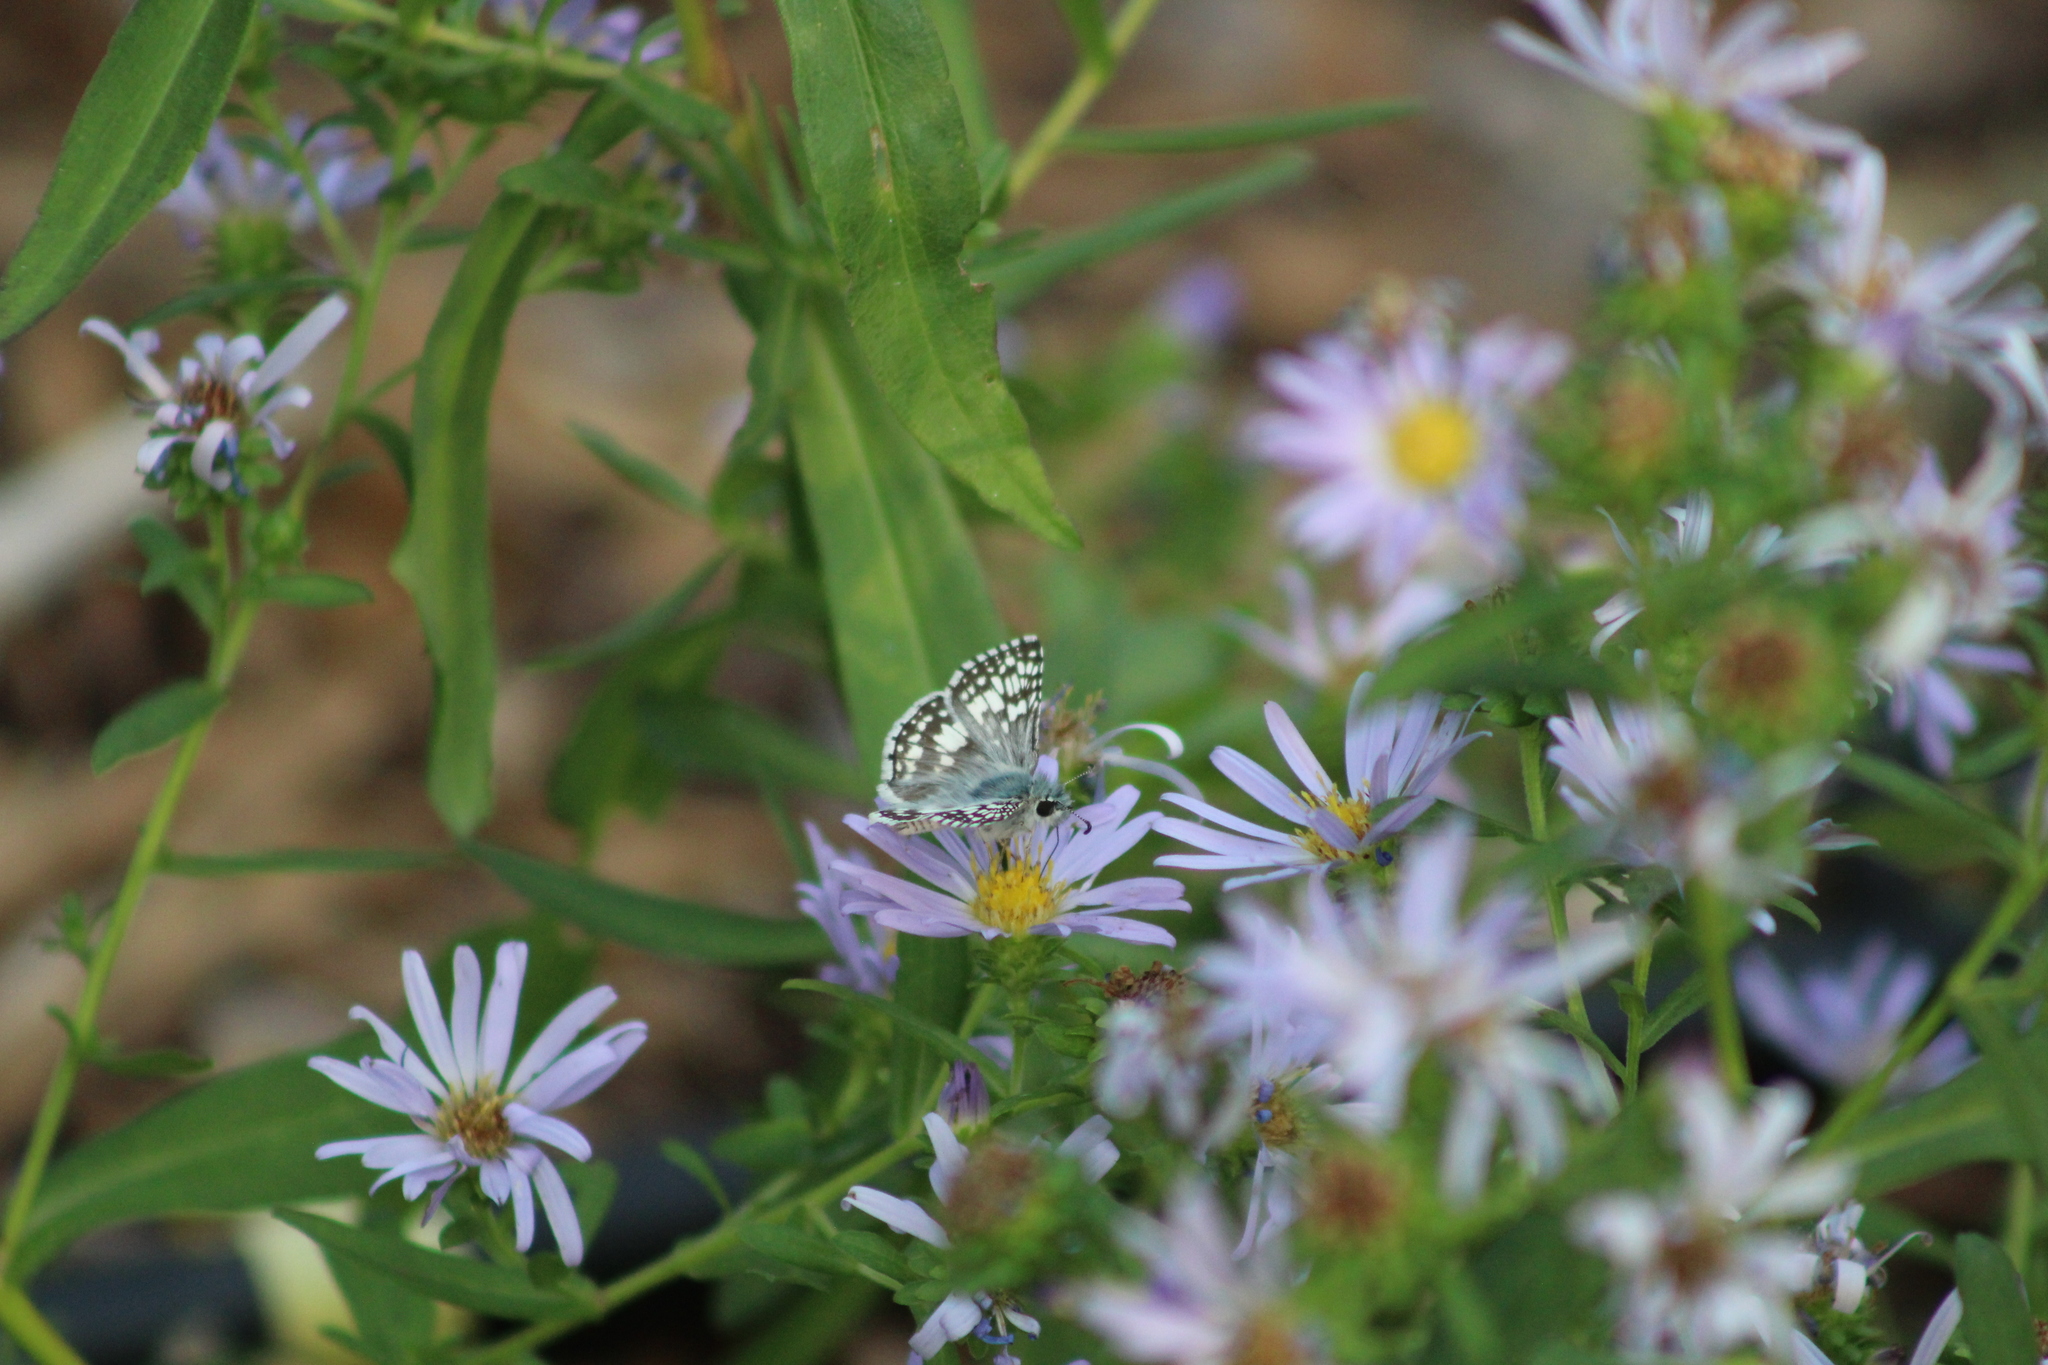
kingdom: Animalia
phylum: Arthropoda
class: Insecta
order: Lepidoptera
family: Hesperiidae
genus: Burnsius
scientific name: Burnsius communis
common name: Common checkered-skipper
